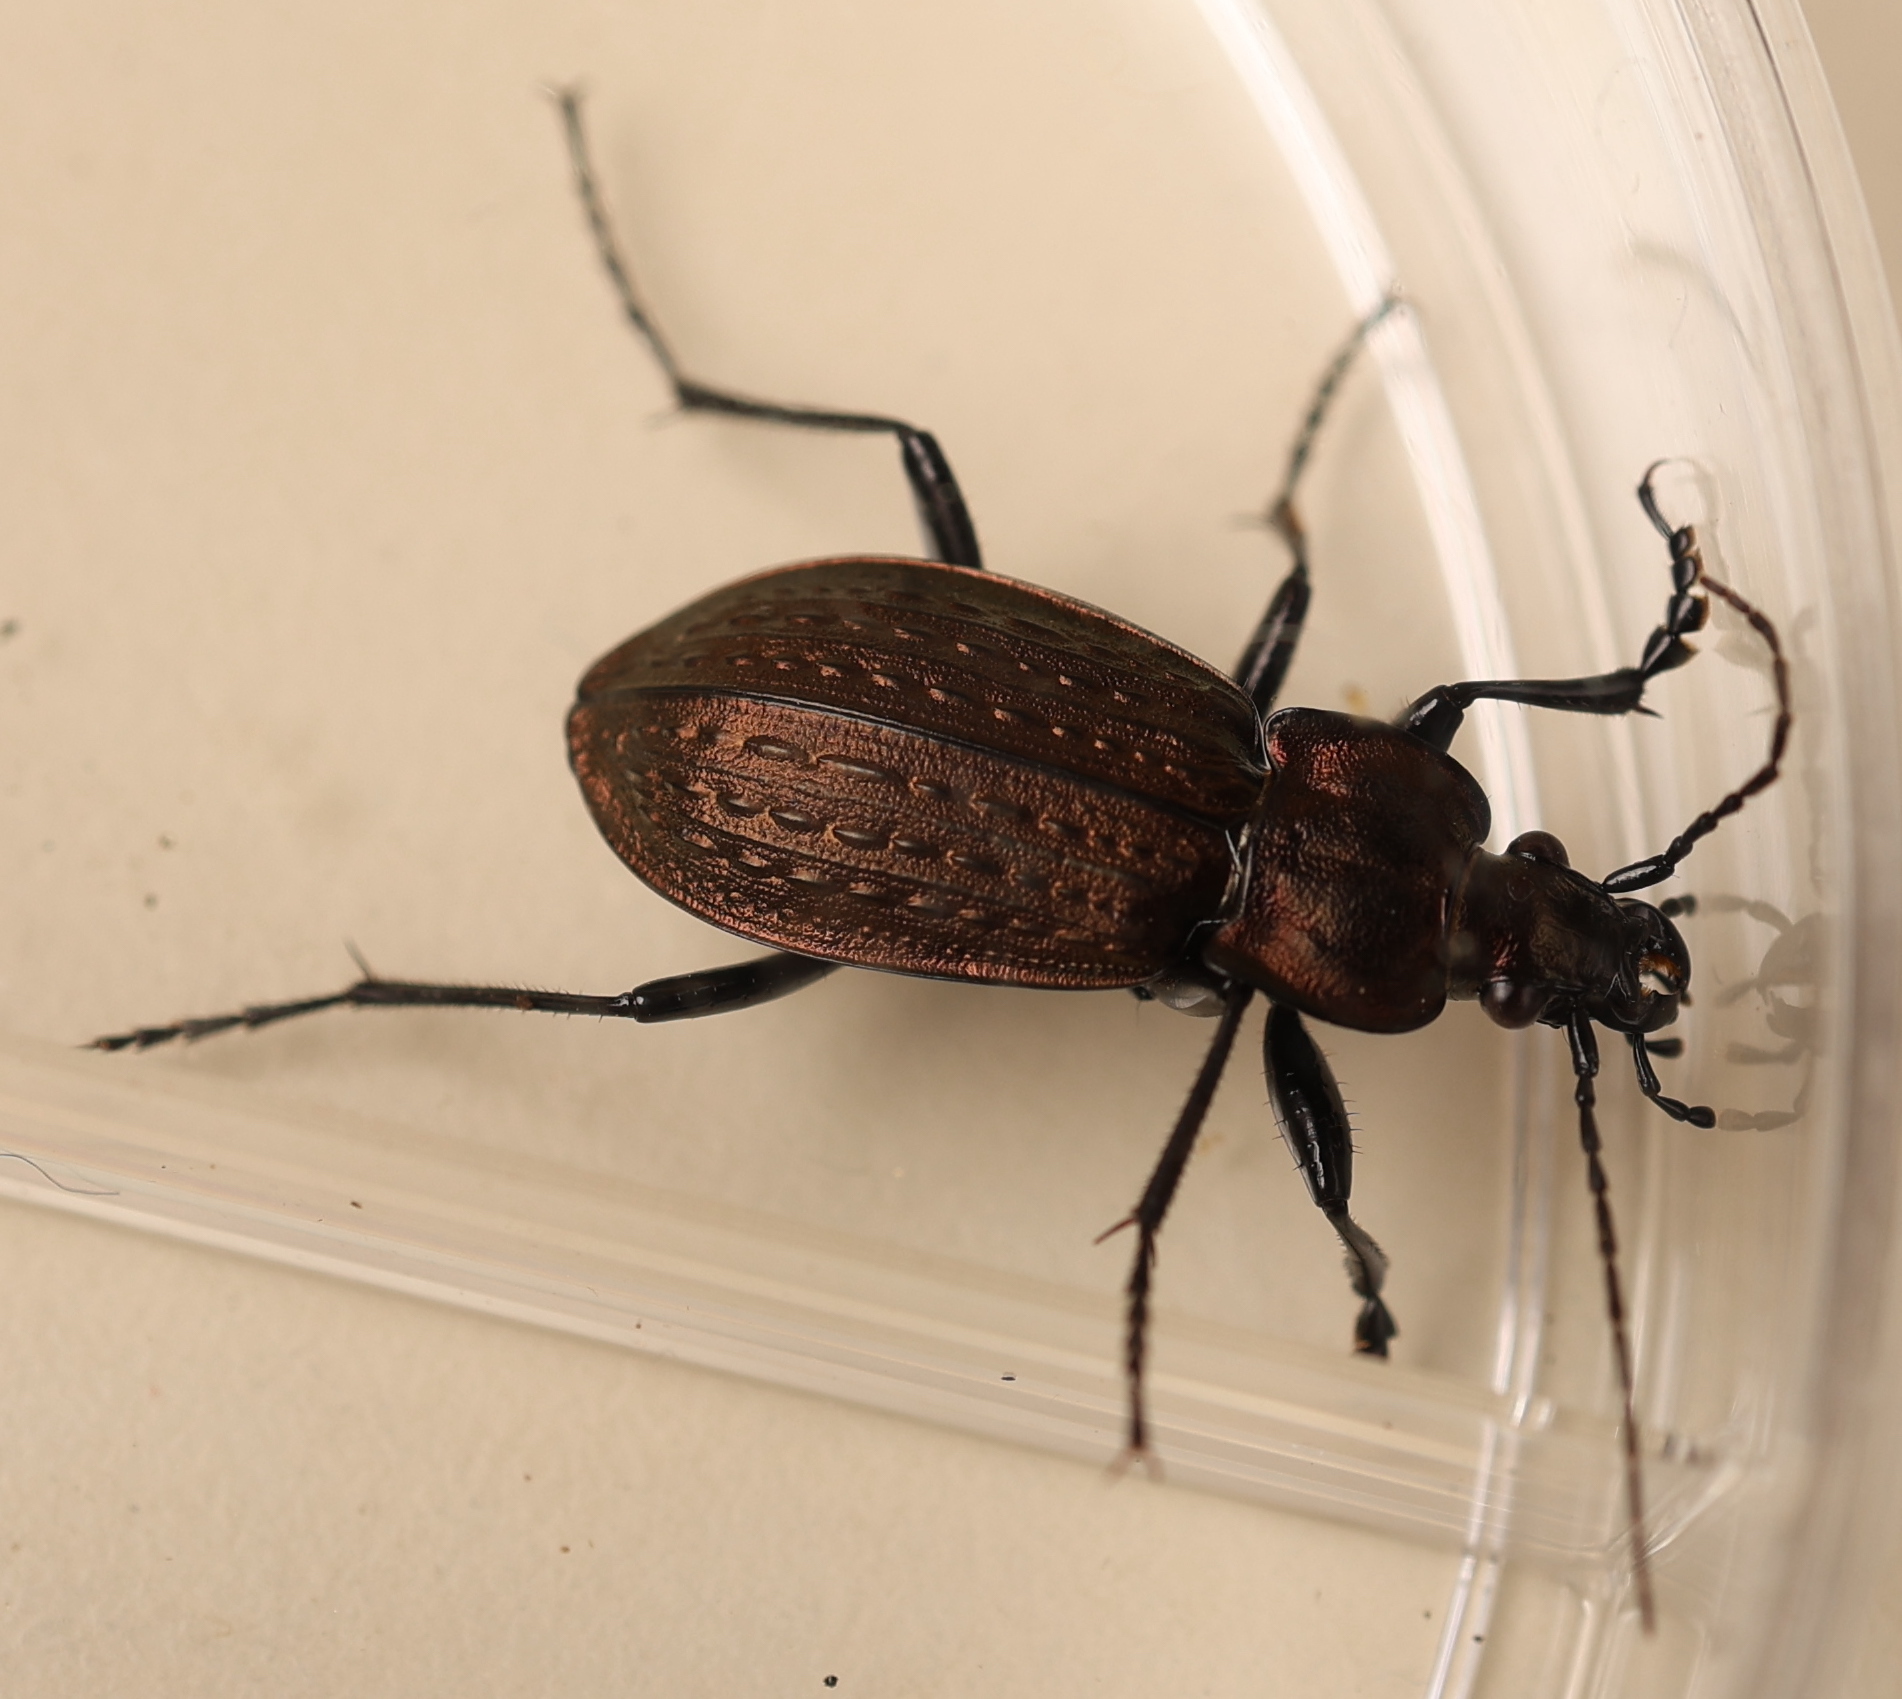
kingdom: Animalia
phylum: Arthropoda
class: Insecta
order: Coleoptera
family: Carabidae
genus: Carabus
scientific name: Carabus granulatus
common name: Granulate ground beetle
